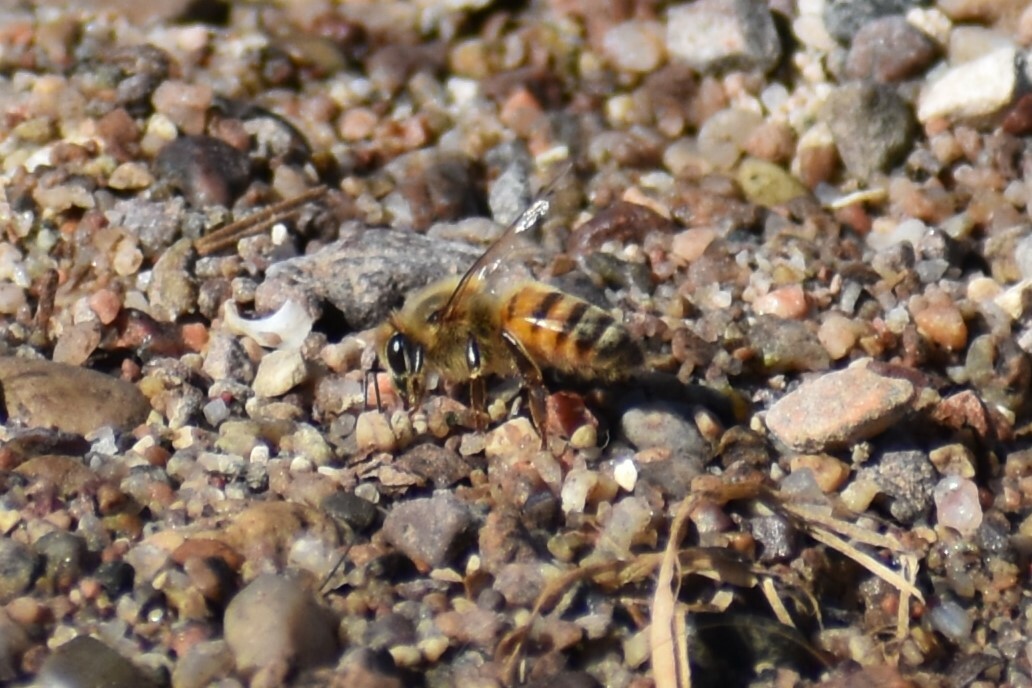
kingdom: Animalia
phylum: Arthropoda
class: Insecta
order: Hymenoptera
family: Apidae
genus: Apis
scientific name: Apis mellifera
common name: Honey bee
